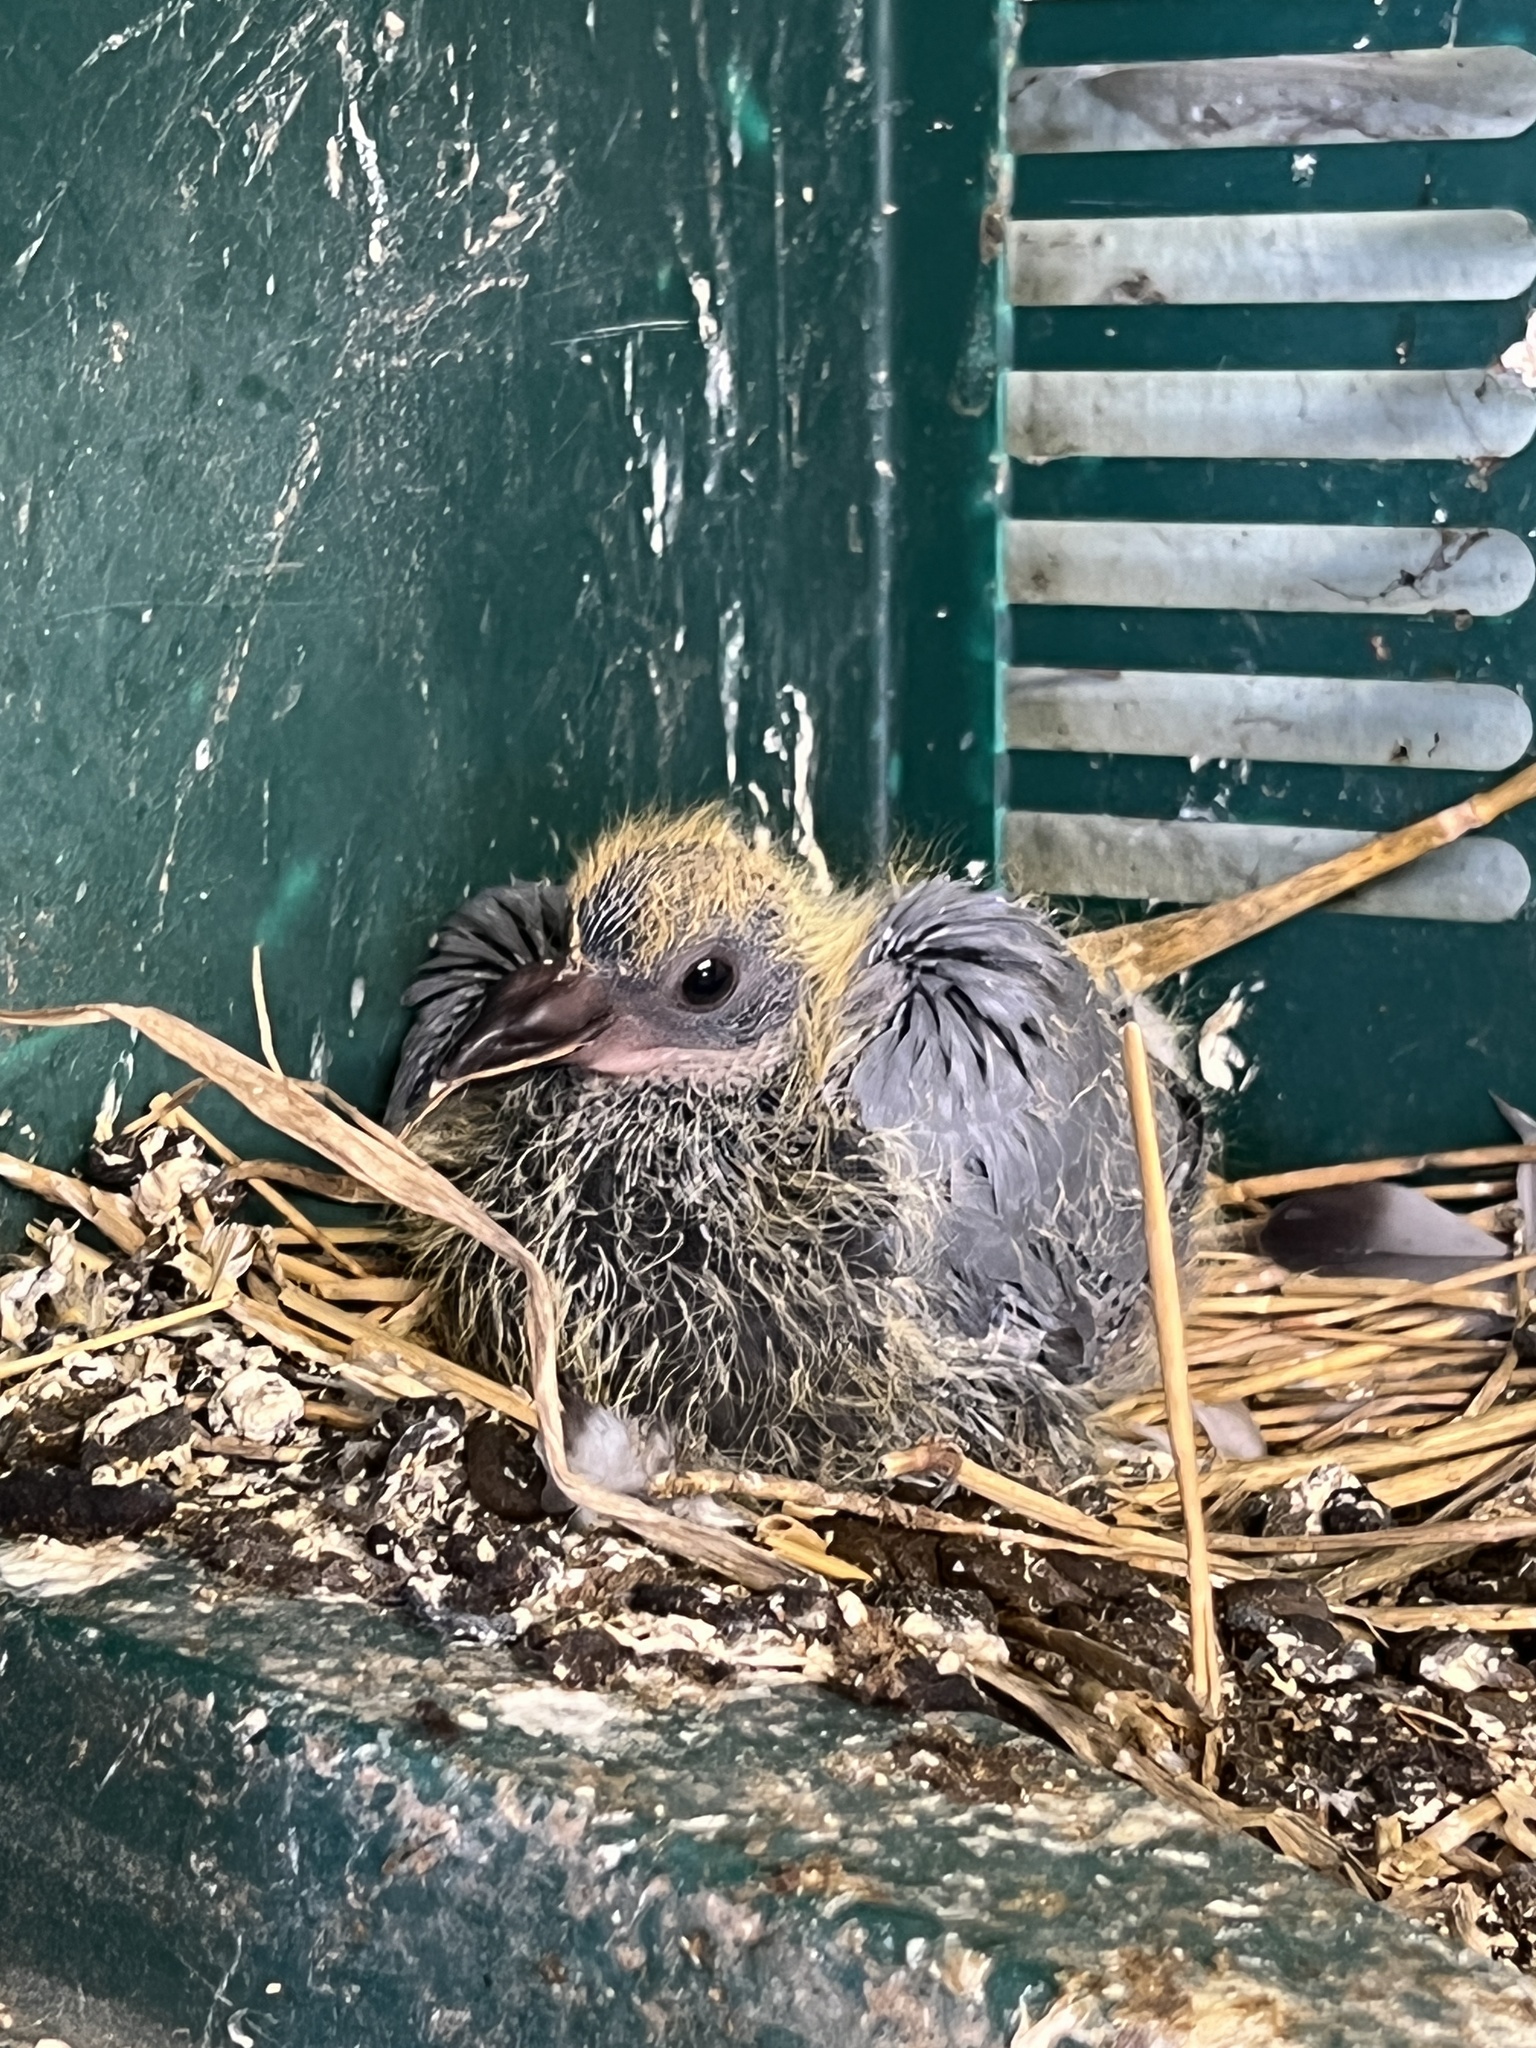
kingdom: Animalia
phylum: Chordata
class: Aves
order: Columbiformes
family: Columbidae
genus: Columba
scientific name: Columba livia
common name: Rock pigeon
